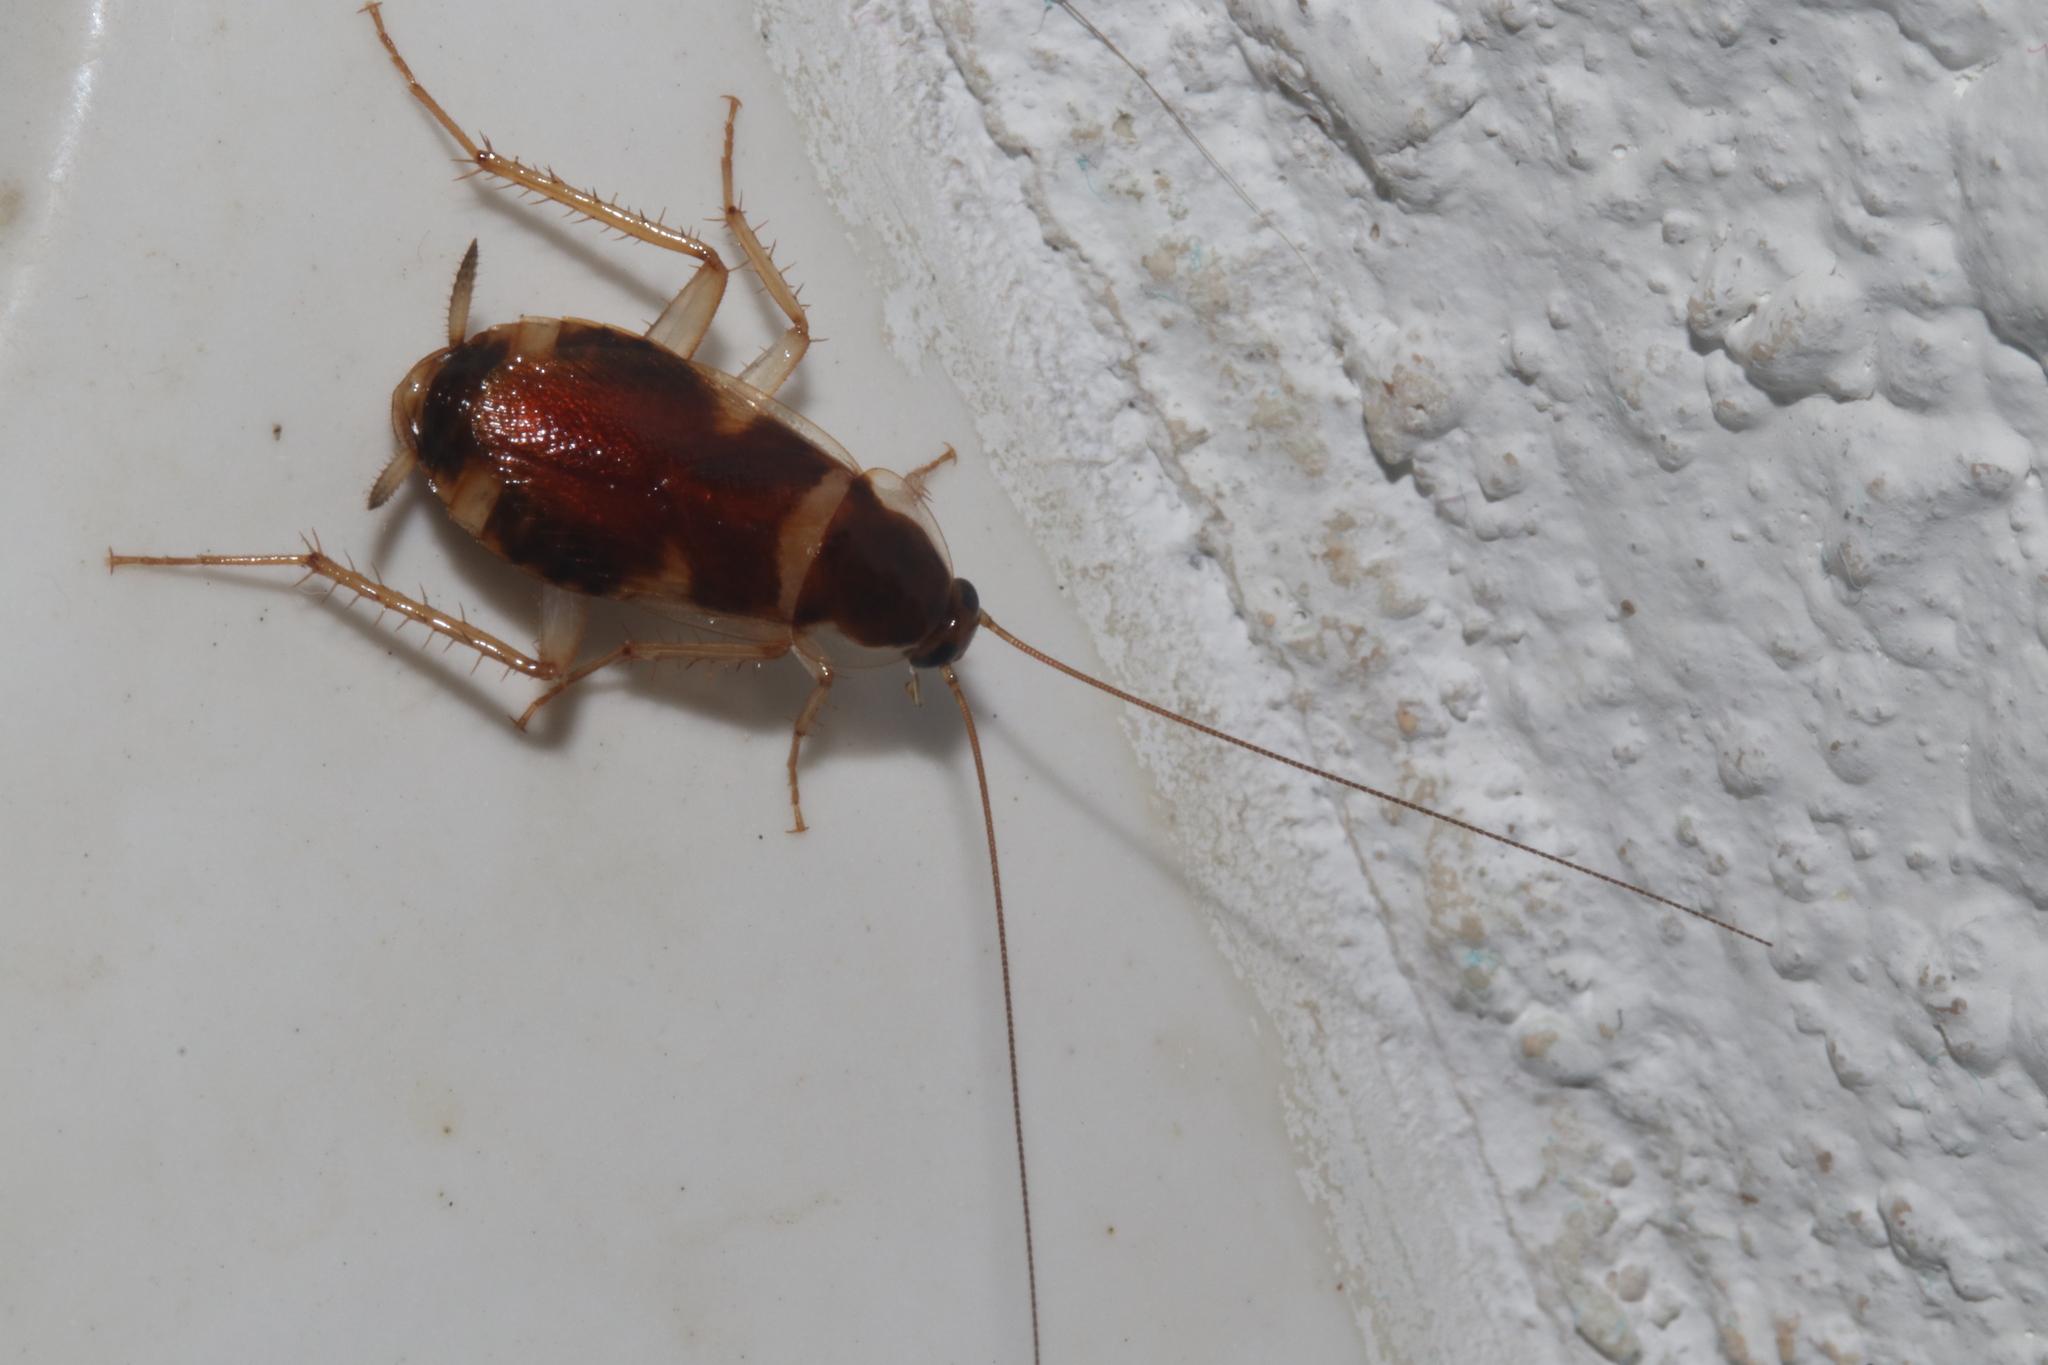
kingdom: Animalia
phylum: Arthropoda
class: Insecta
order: Blattodea
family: Ectobiidae
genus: Supella
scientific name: Supella longipalpa
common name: Brown-banded cockroach
